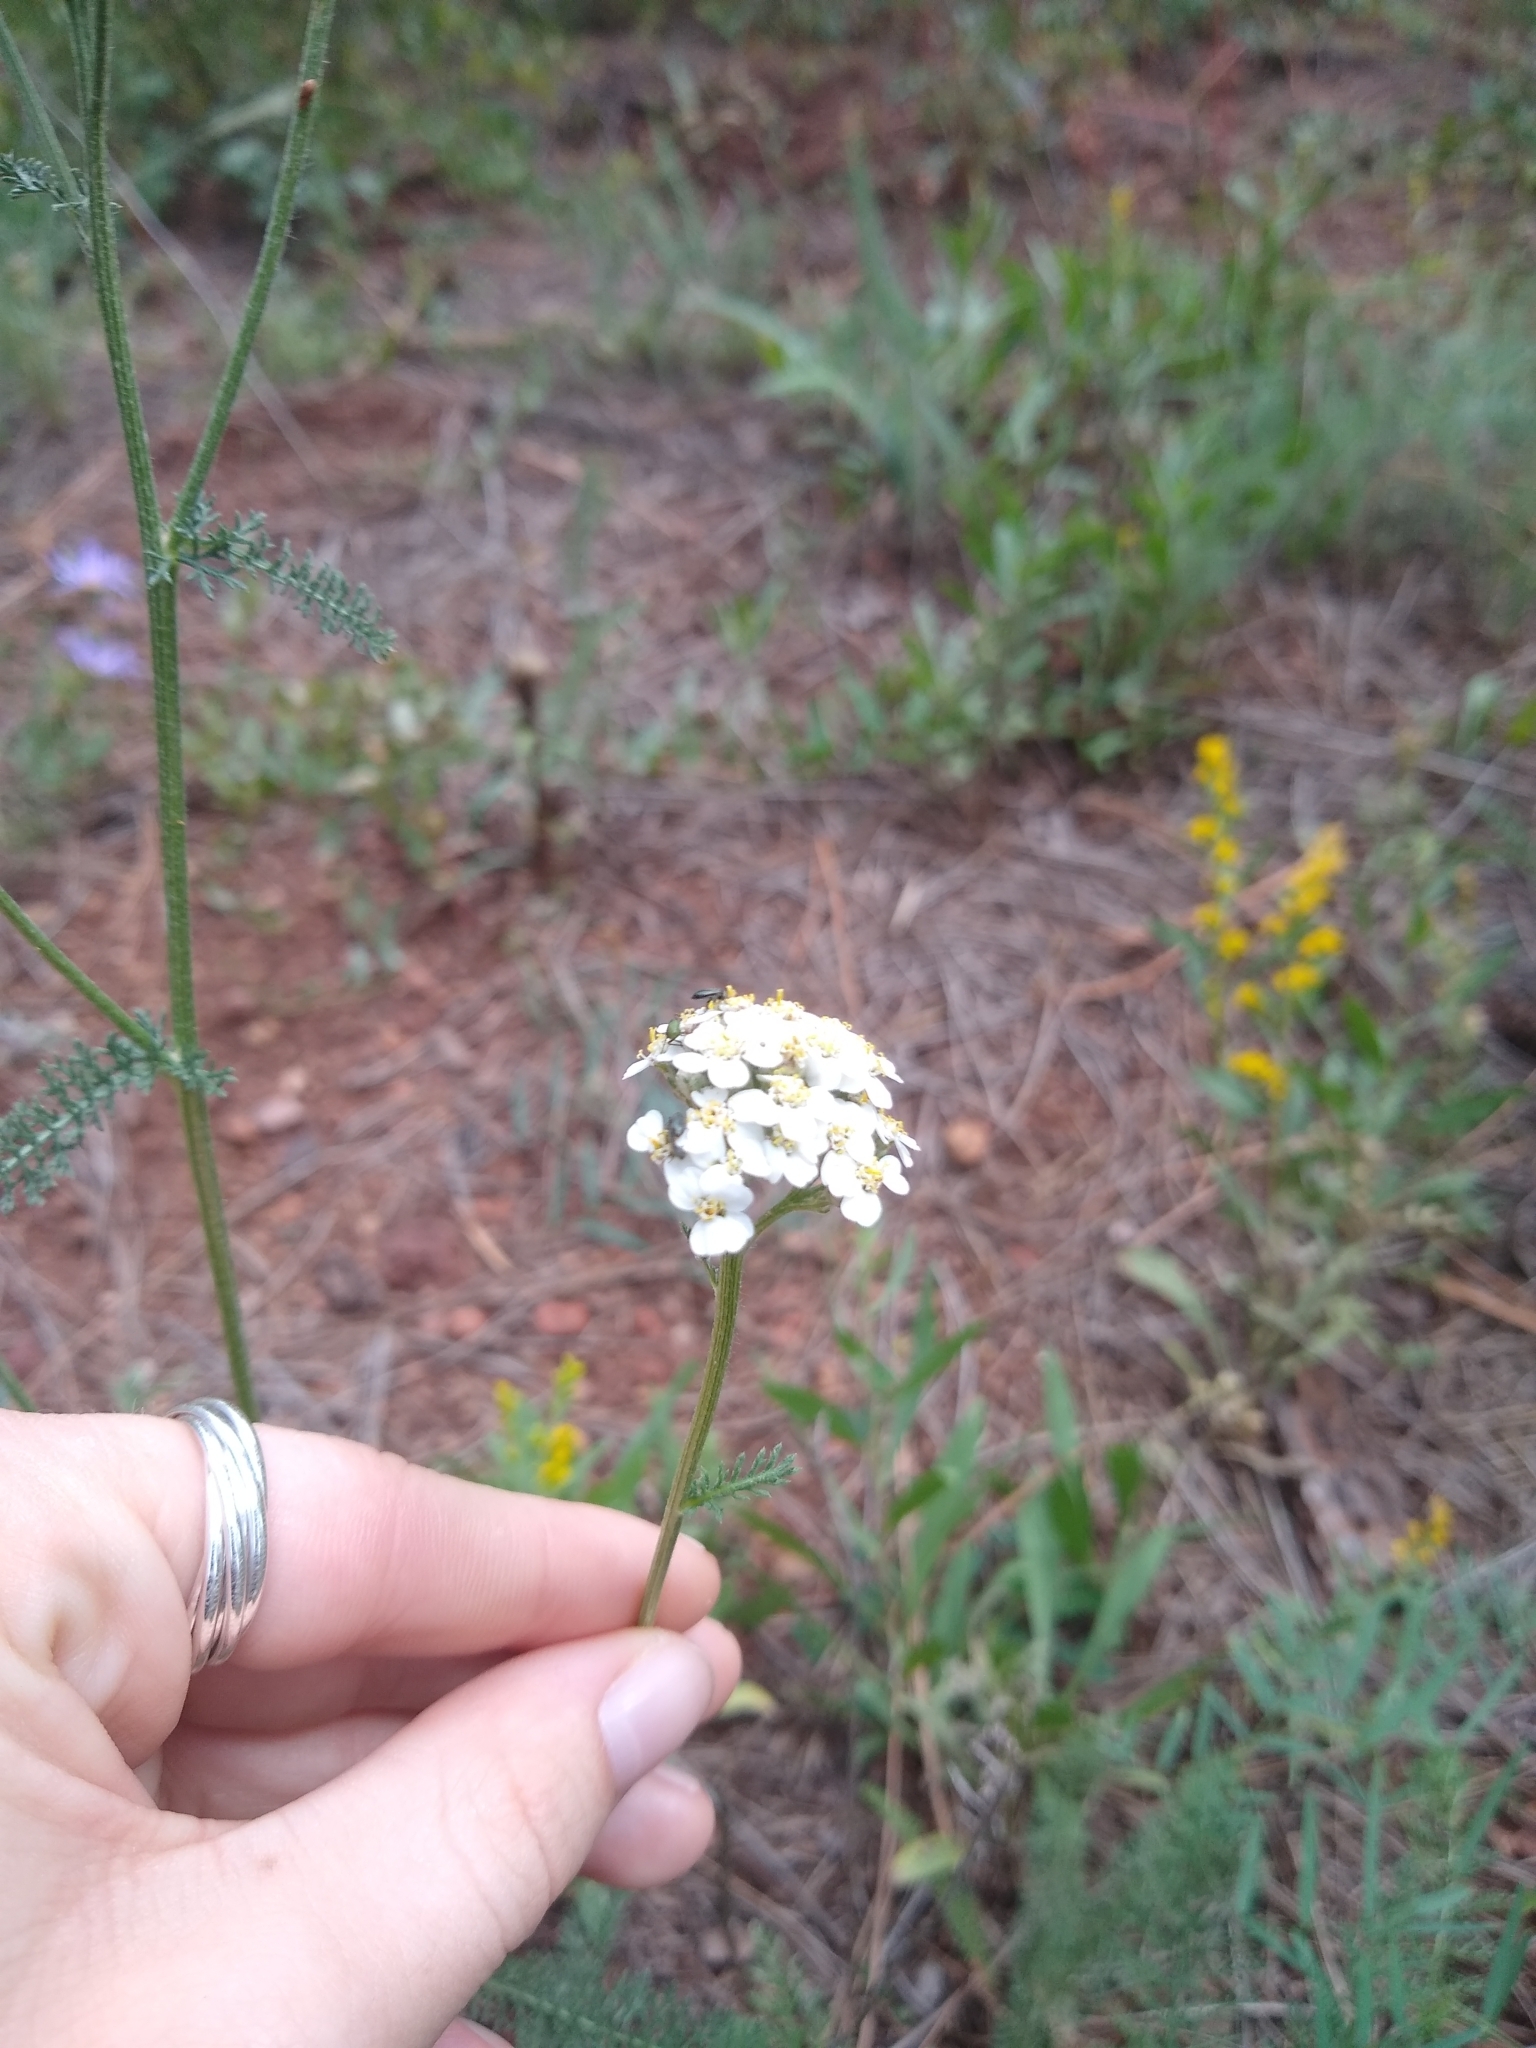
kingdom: Plantae
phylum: Tracheophyta
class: Magnoliopsida
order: Asterales
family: Asteraceae
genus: Achillea
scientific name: Achillea millefolium
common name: Yarrow
